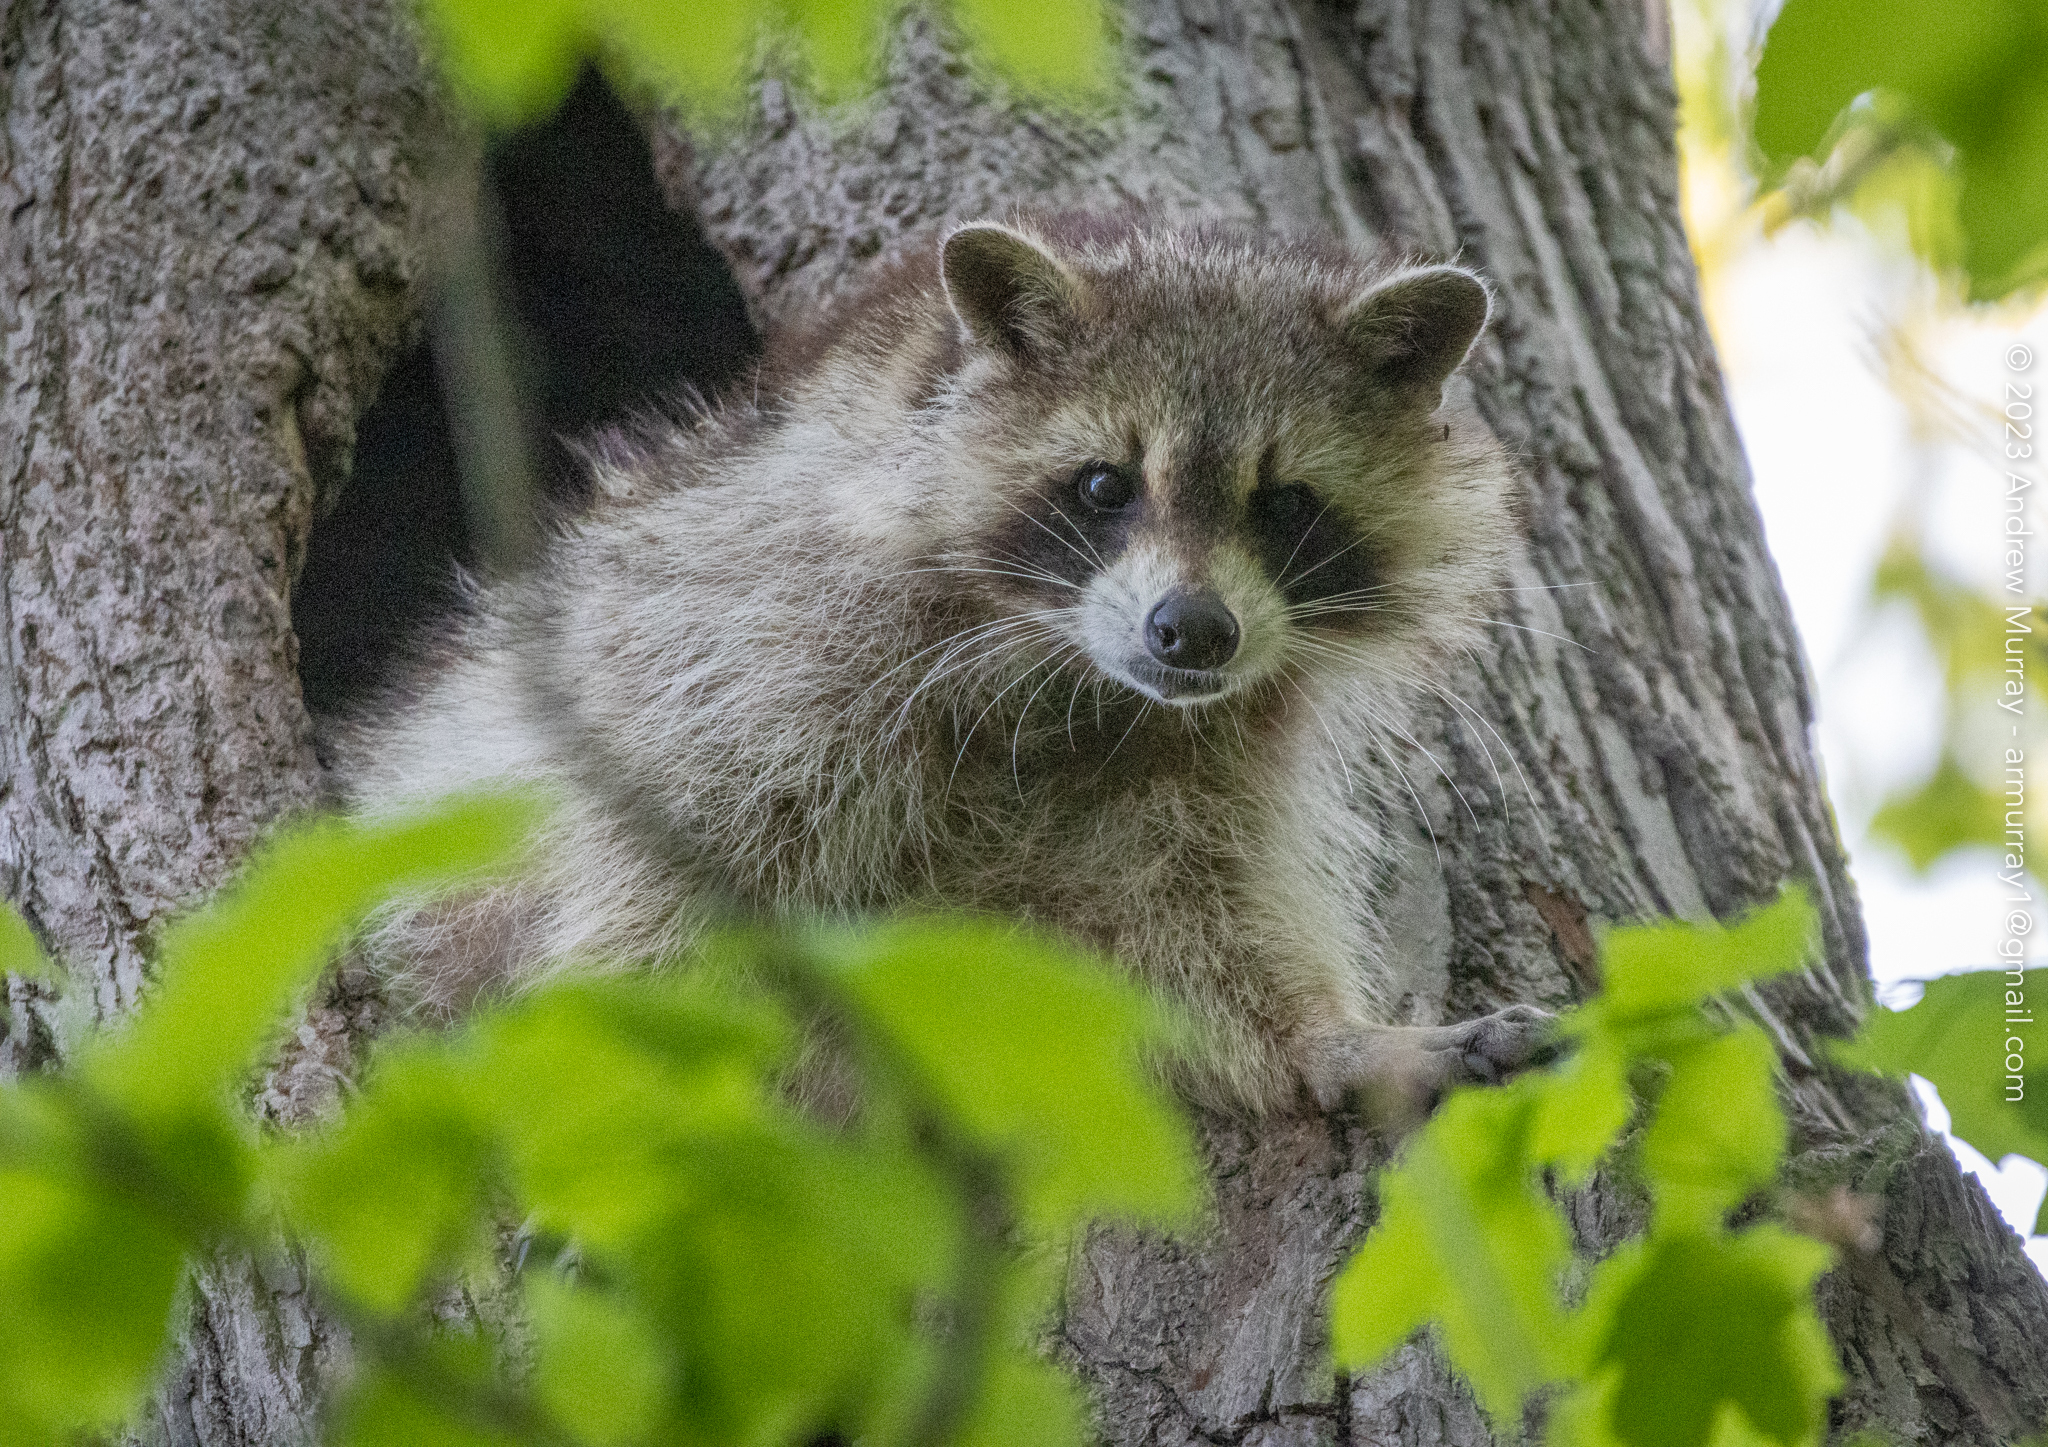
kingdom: Animalia
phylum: Chordata
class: Mammalia
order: Carnivora
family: Procyonidae
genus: Procyon
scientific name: Procyon lotor
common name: Raccoon
